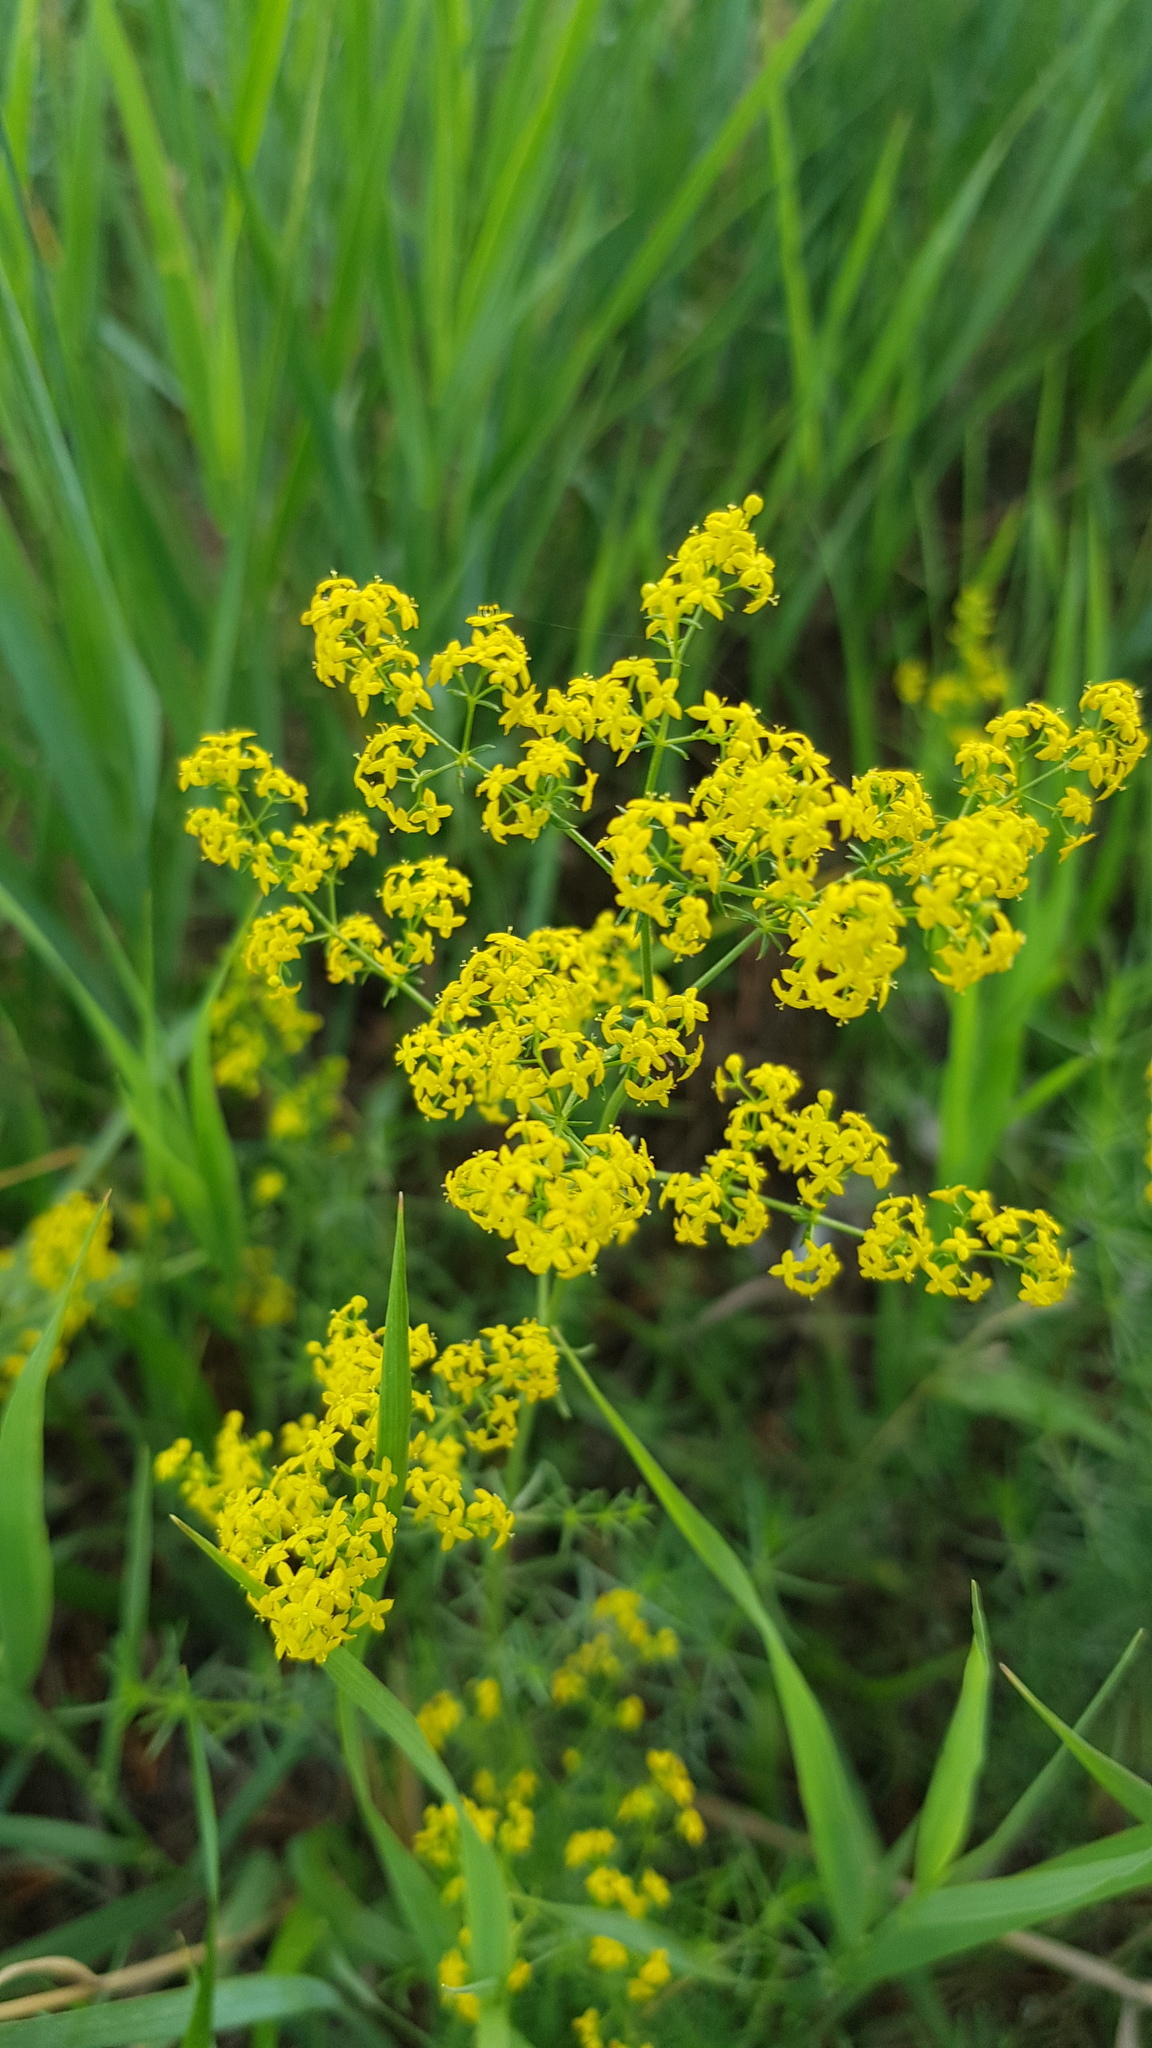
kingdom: Plantae
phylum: Tracheophyta
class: Magnoliopsida
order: Gentianales
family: Rubiaceae
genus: Galium
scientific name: Galium verum
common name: Lady's bedstraw
